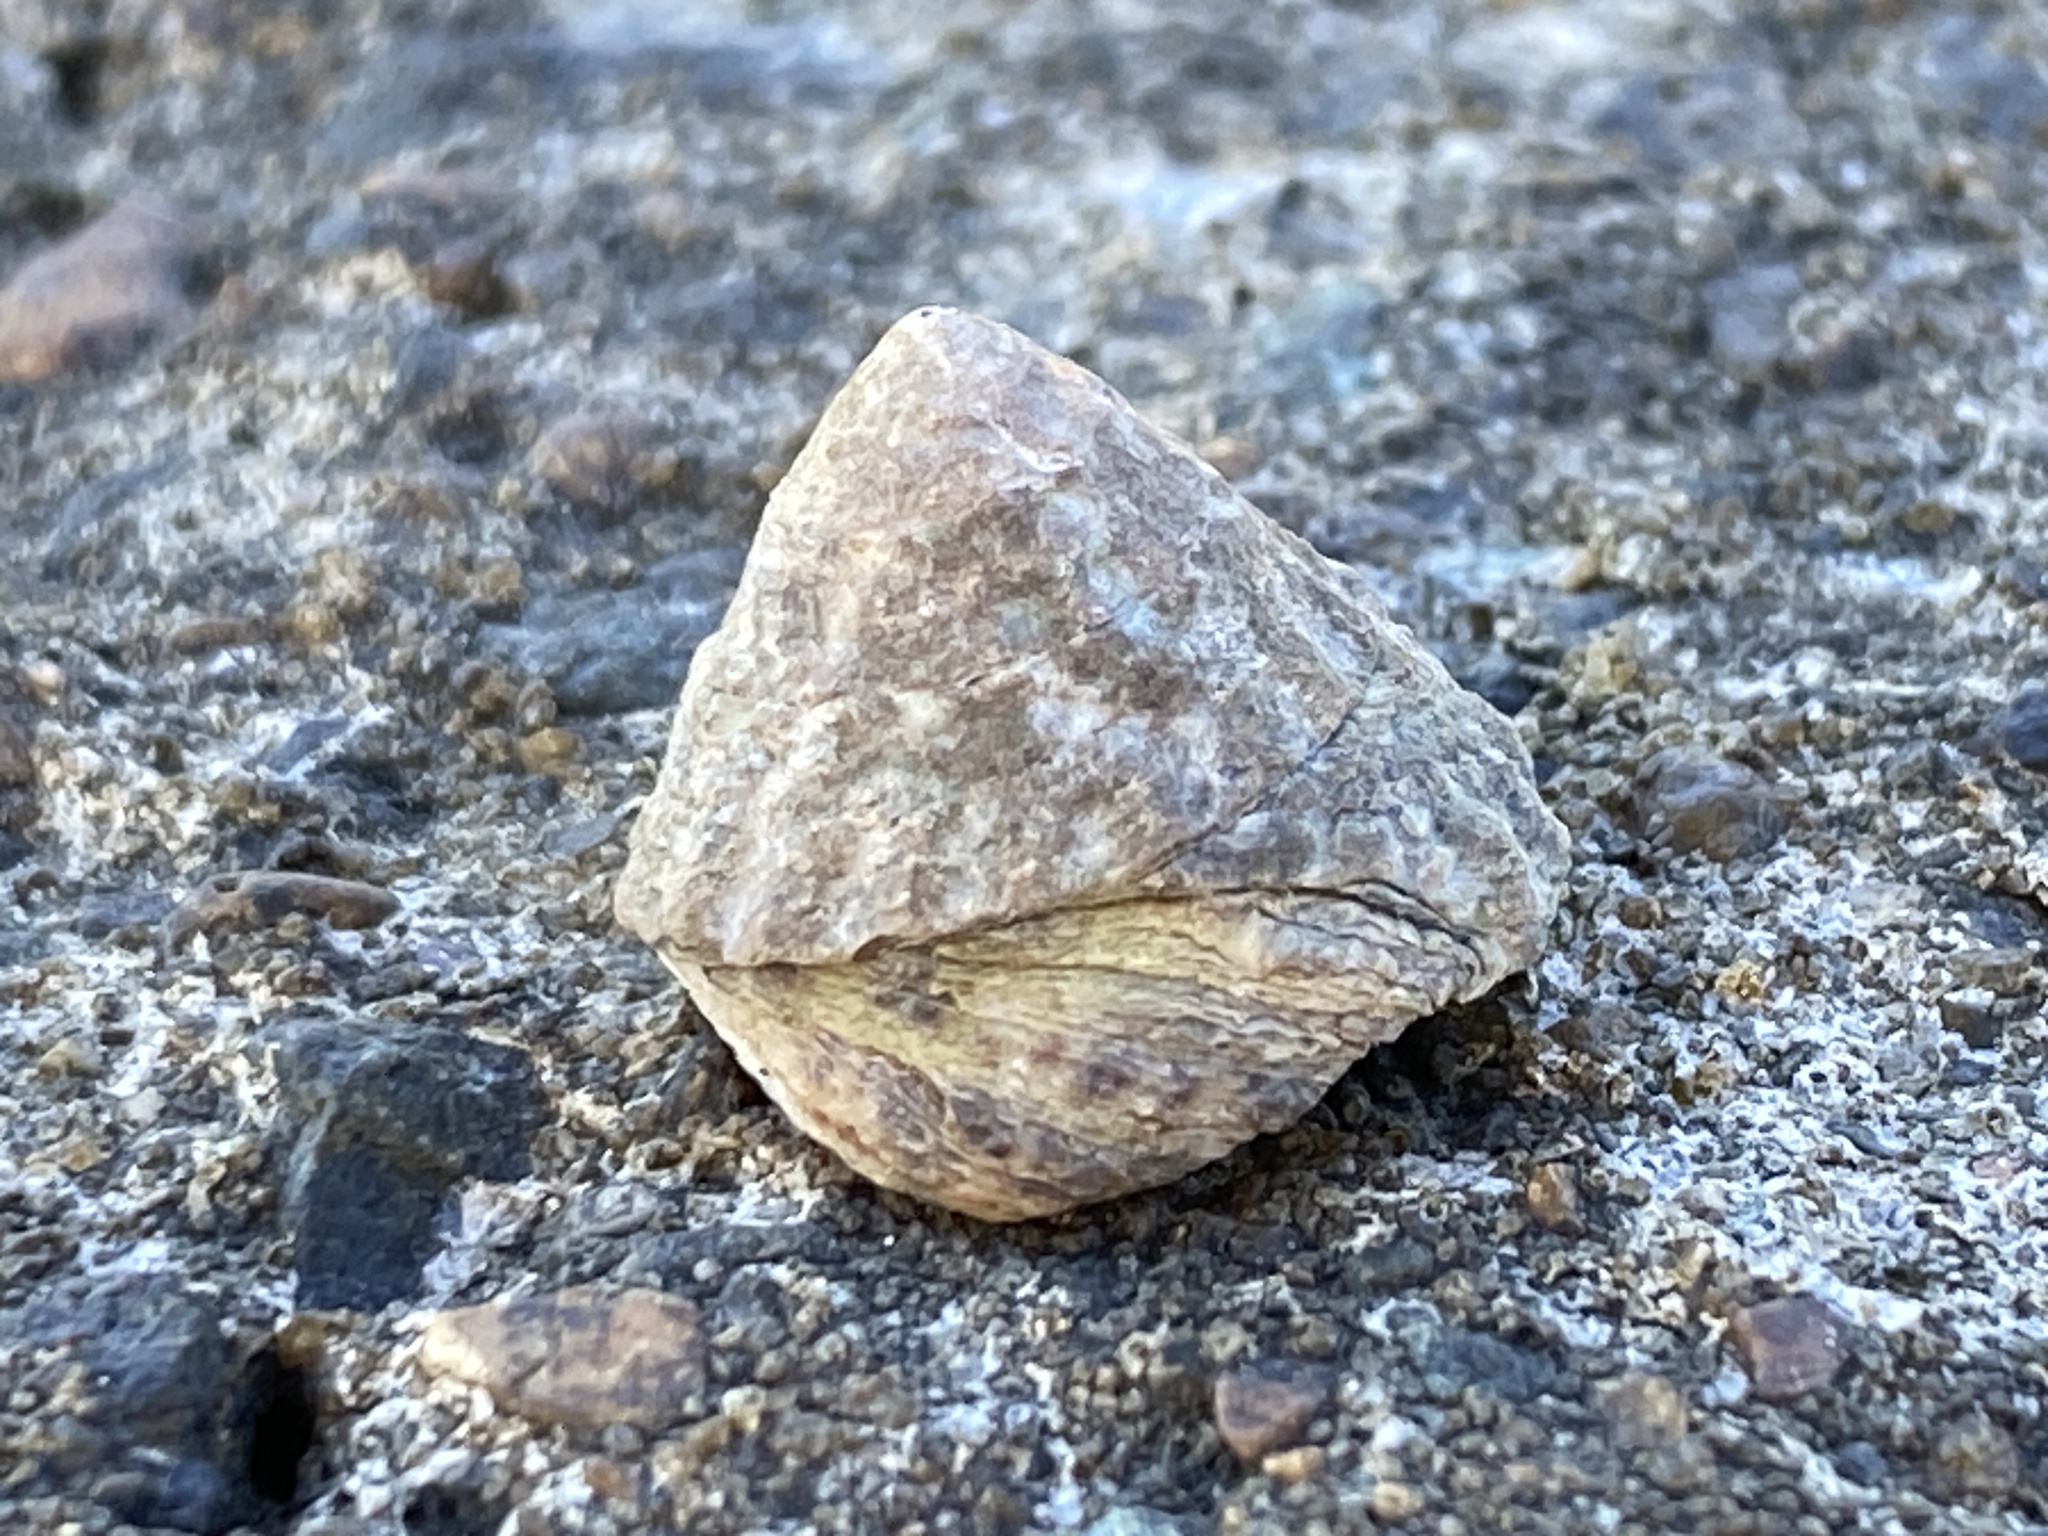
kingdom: Animalia
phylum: Mollusca
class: Gastropoda
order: Littorinimorpha
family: Littorinidae
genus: Bembicium
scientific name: Bembicium auratum
